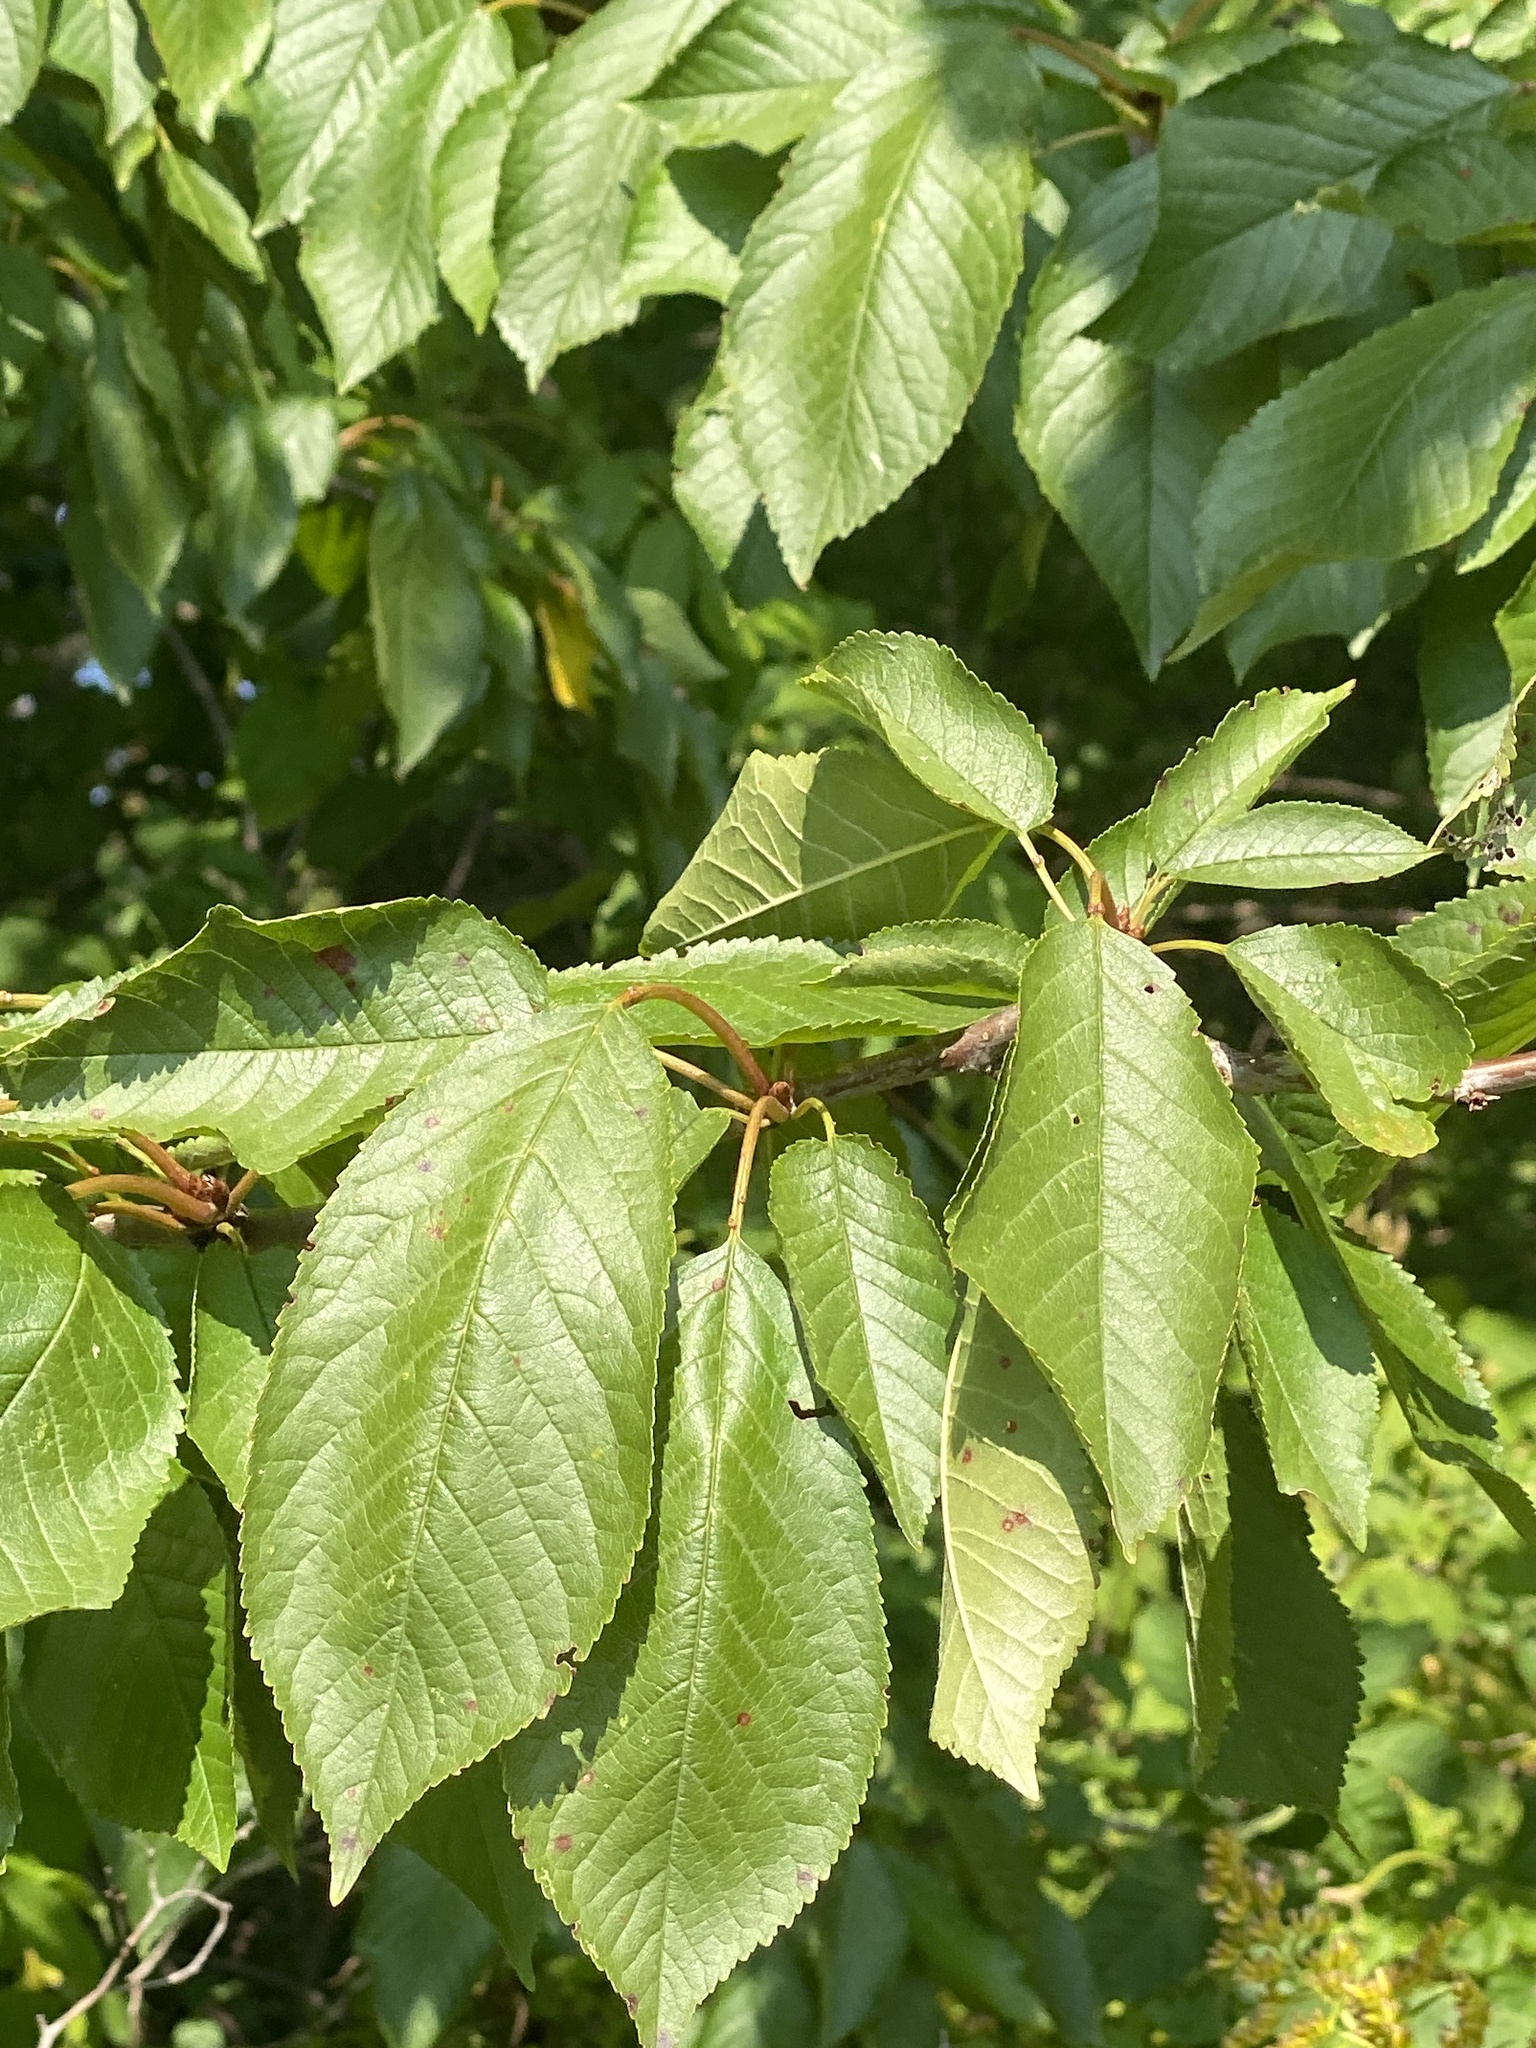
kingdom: Plantae
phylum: Tracheophyta
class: Magnoliopsida
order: Rosales
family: Rosaceae
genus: Prunus
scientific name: Prunus avium
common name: Sweet cherry
